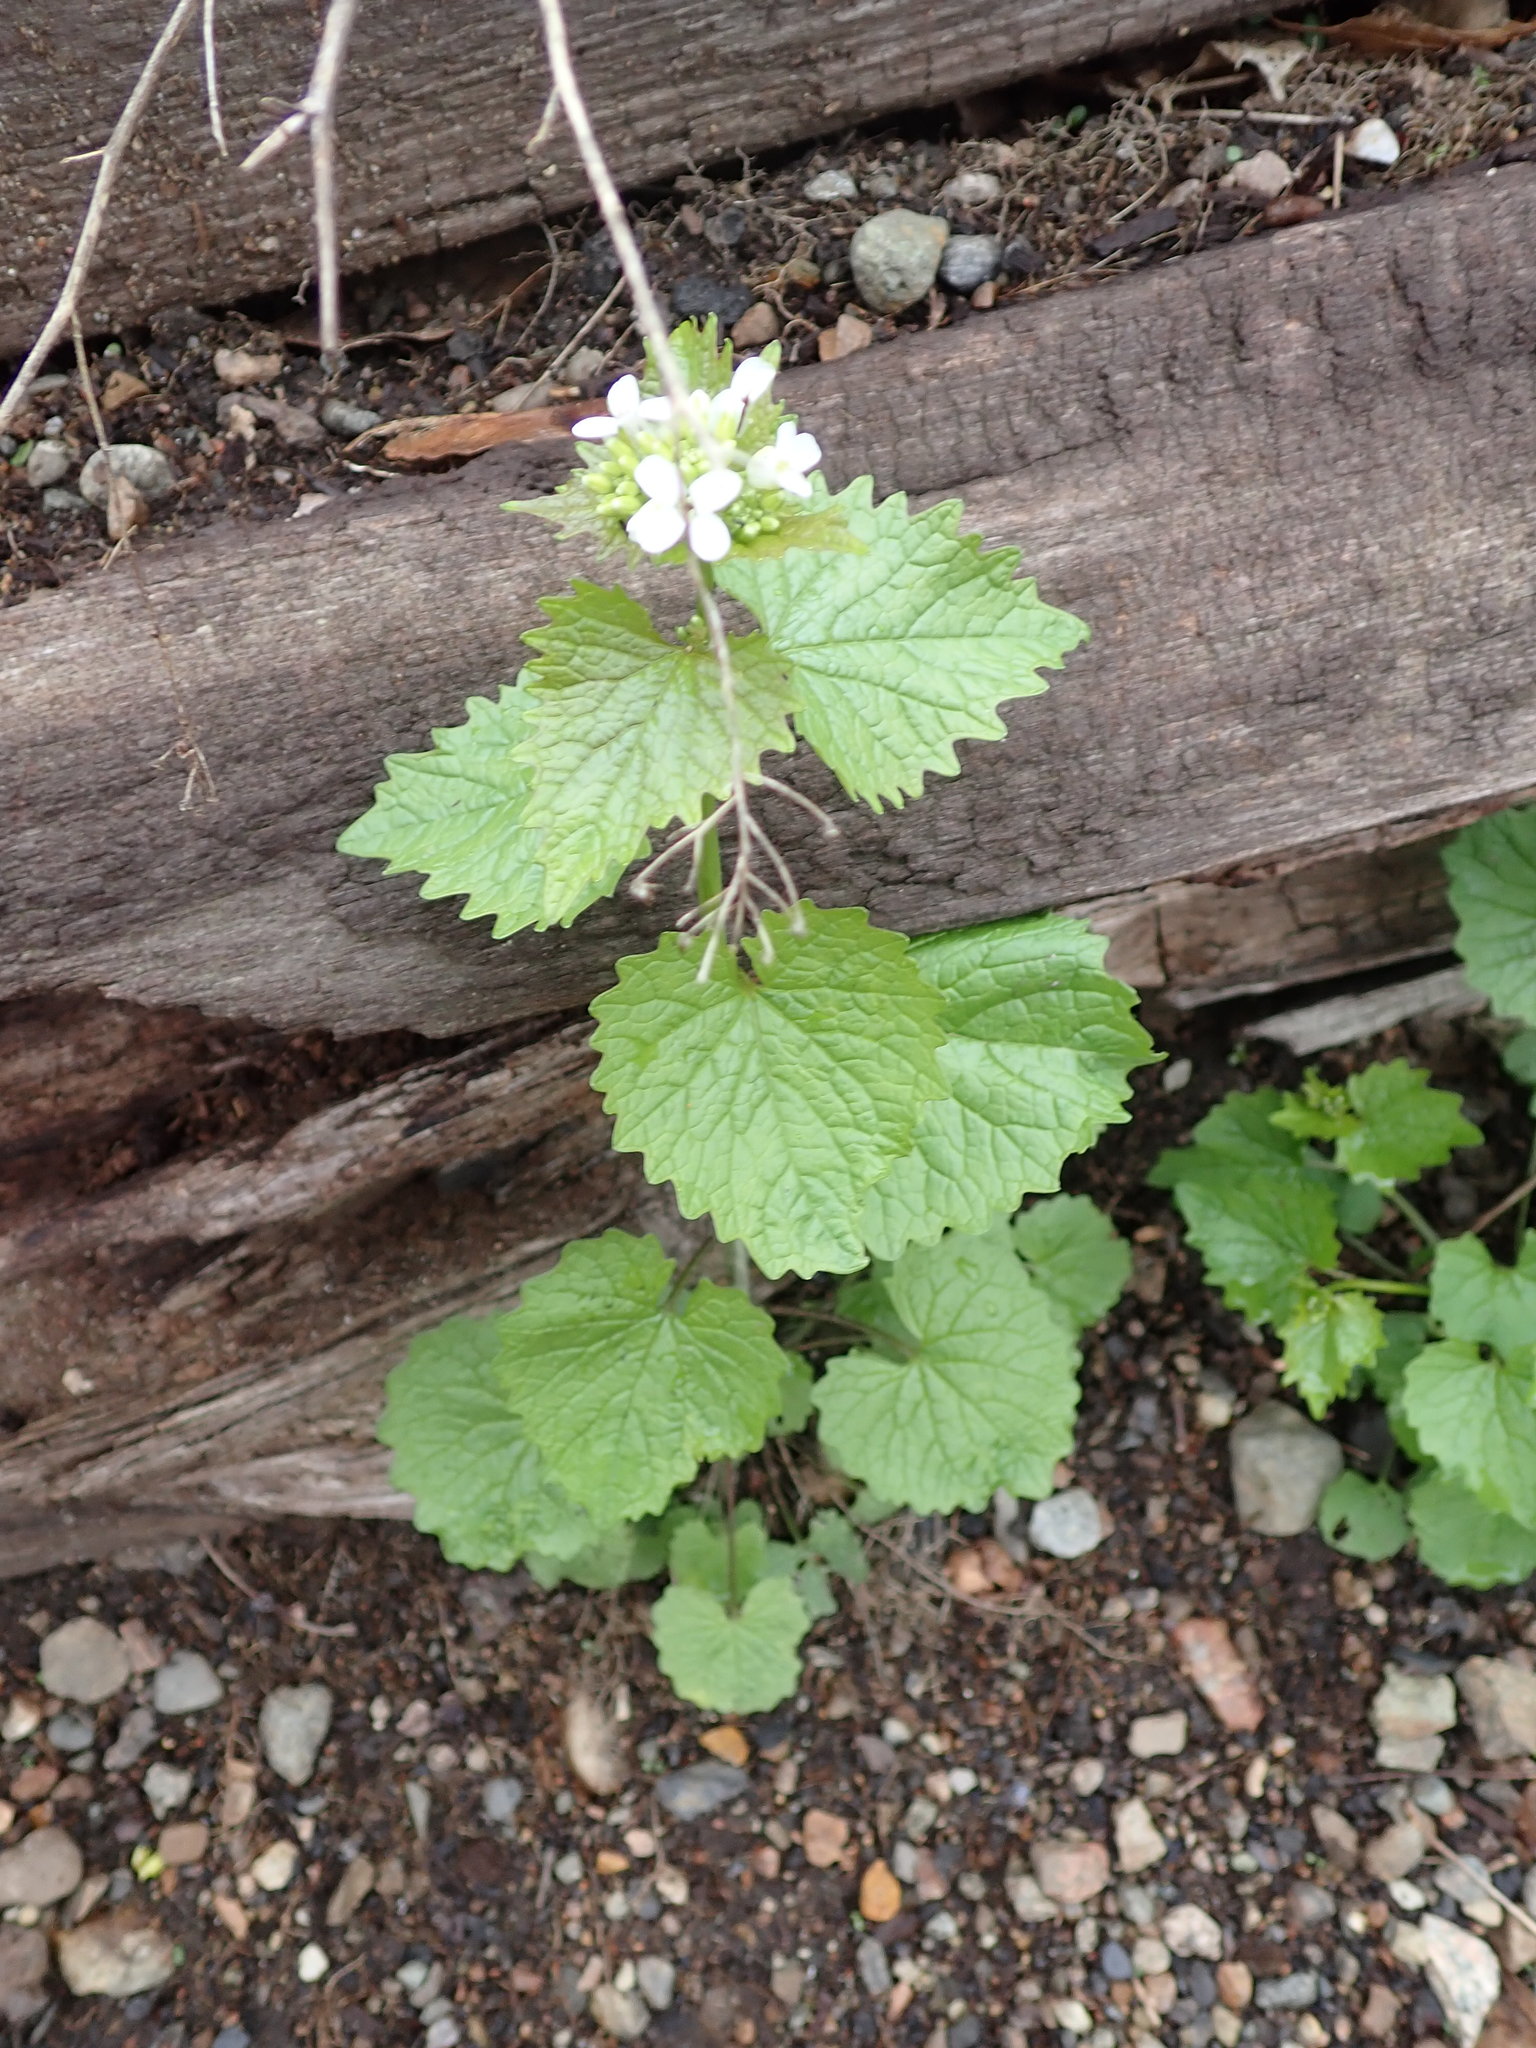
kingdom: Plantae
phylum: Tracheophyta
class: Magnoliopsida
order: Brassicales
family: Brassicaceae
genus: Alliaria
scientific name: Alliaria petiolata
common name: Garlic mustard
